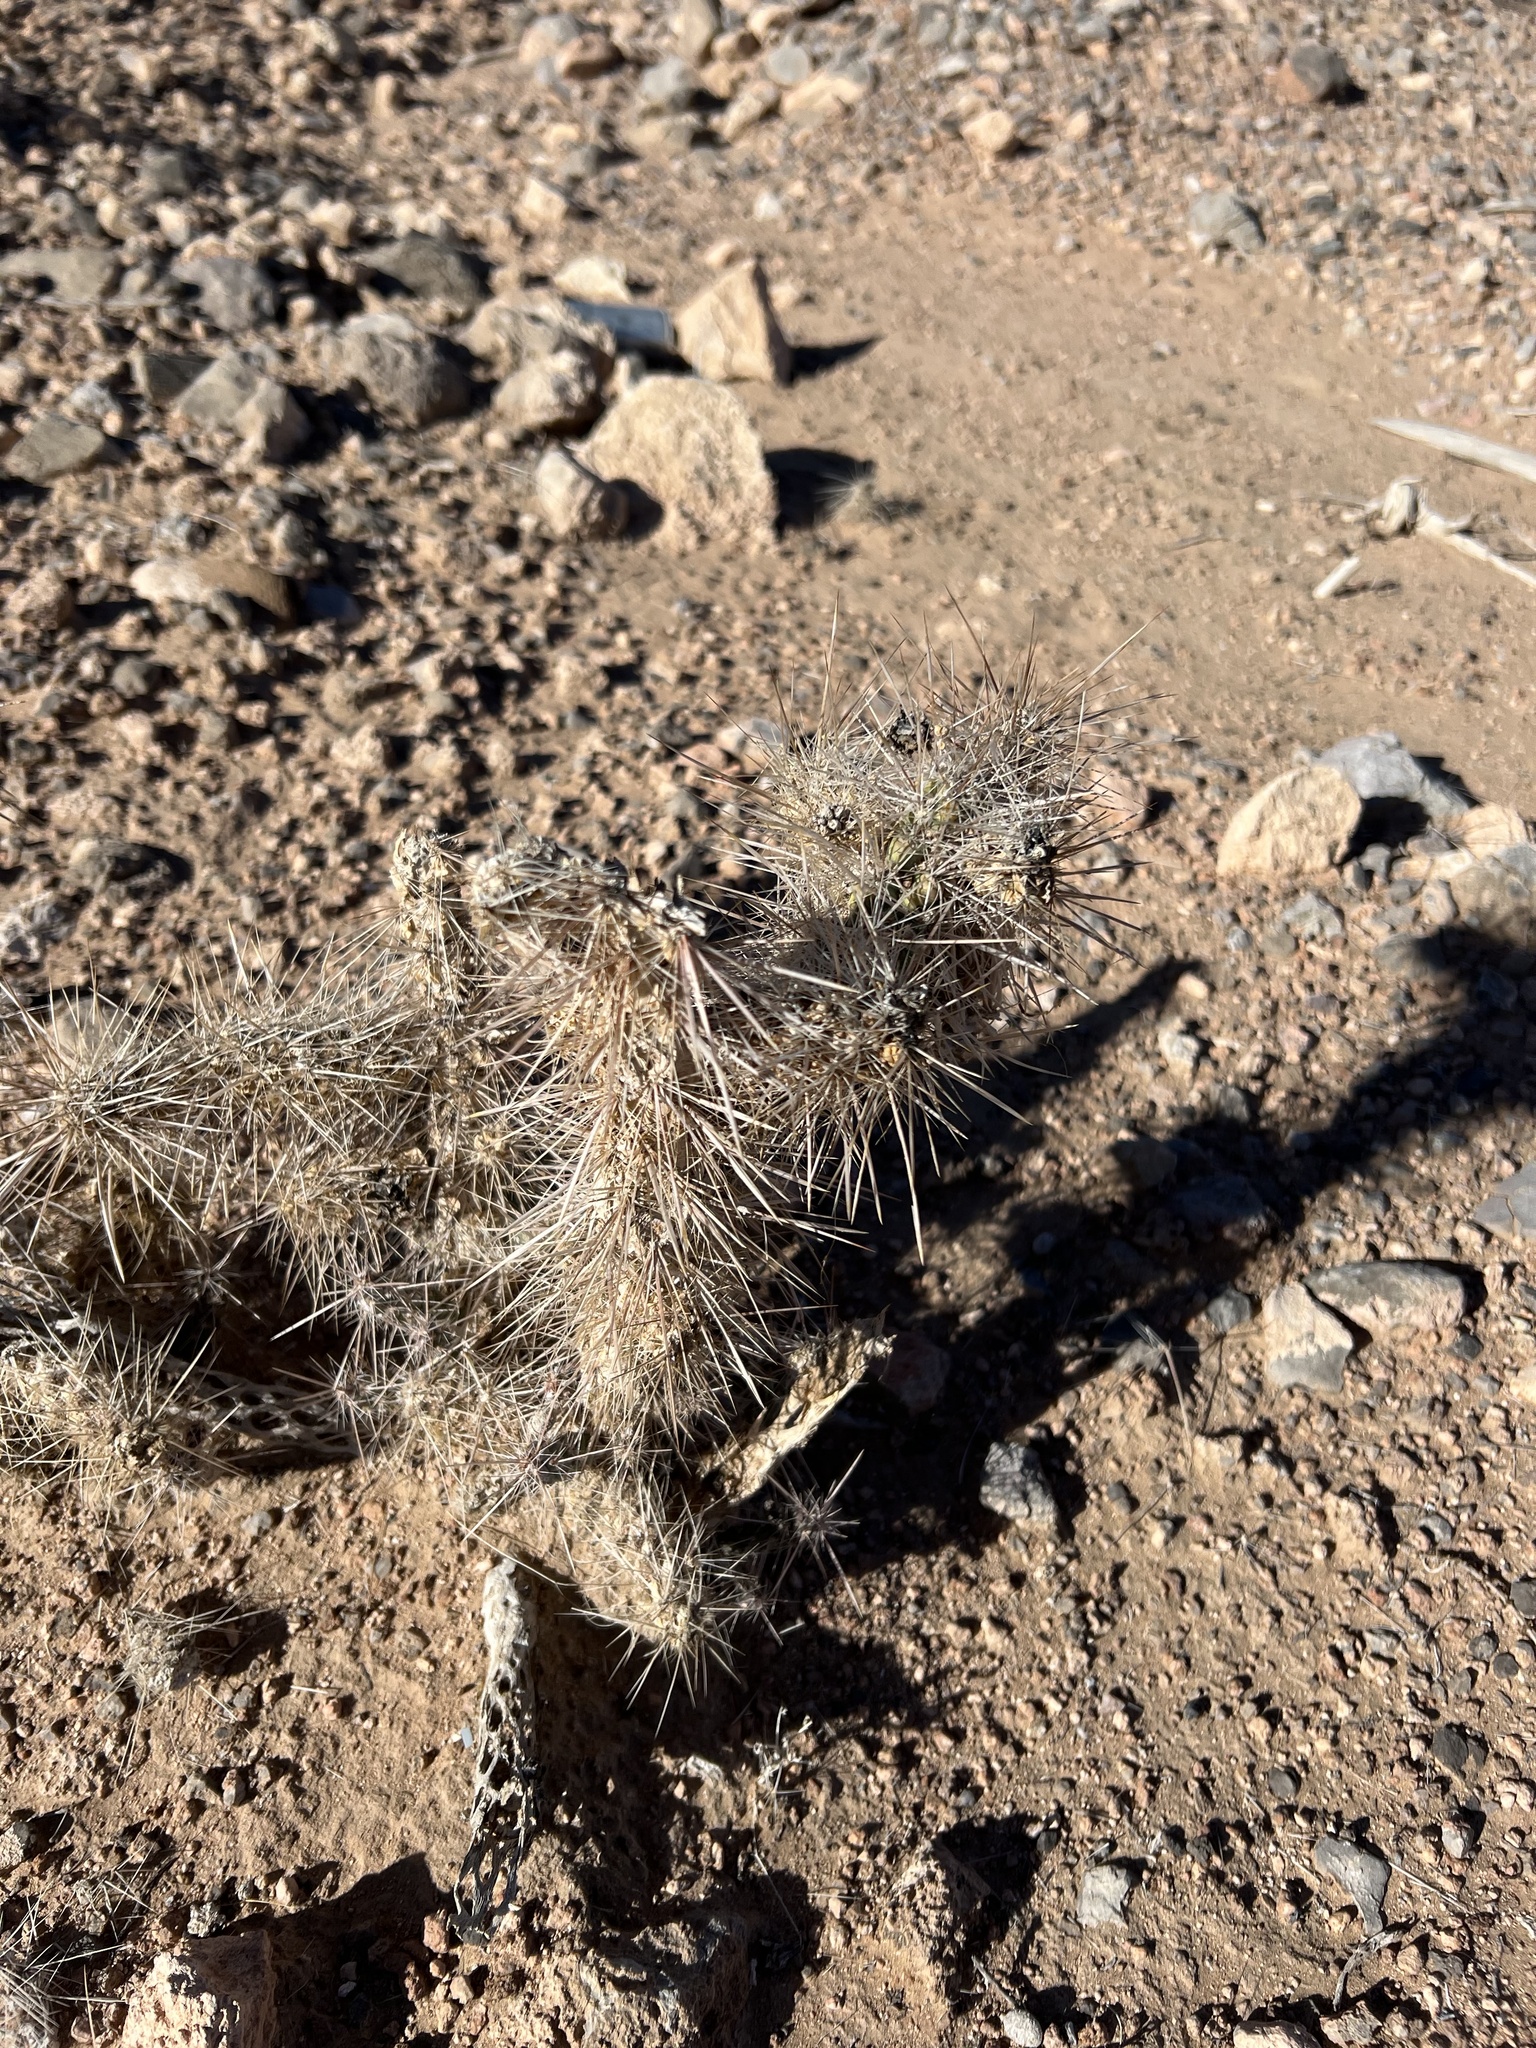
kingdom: Plantae
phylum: Tracheophyta
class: Magnoliopsida
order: Caryophyllales
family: Cactaceae
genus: Cylindropuntia
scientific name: Cylindropuntia echinocarpa
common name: Ground cholla
